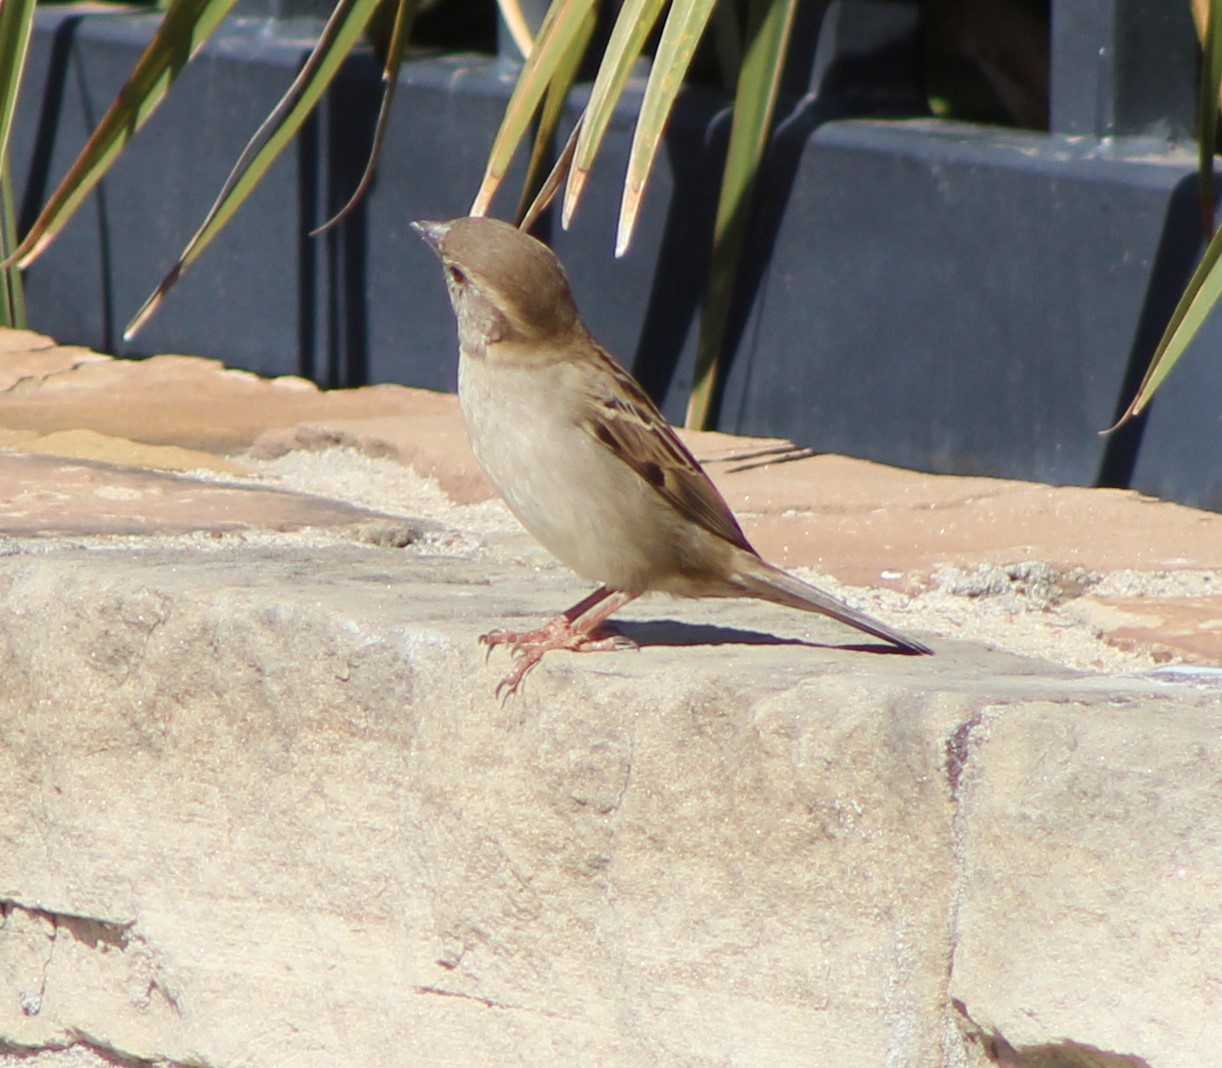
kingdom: Animalia
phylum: Chordata
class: Aves
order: Passeriformes
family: Passeridae
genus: Passer
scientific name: Passer domesticus
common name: House sparrow
